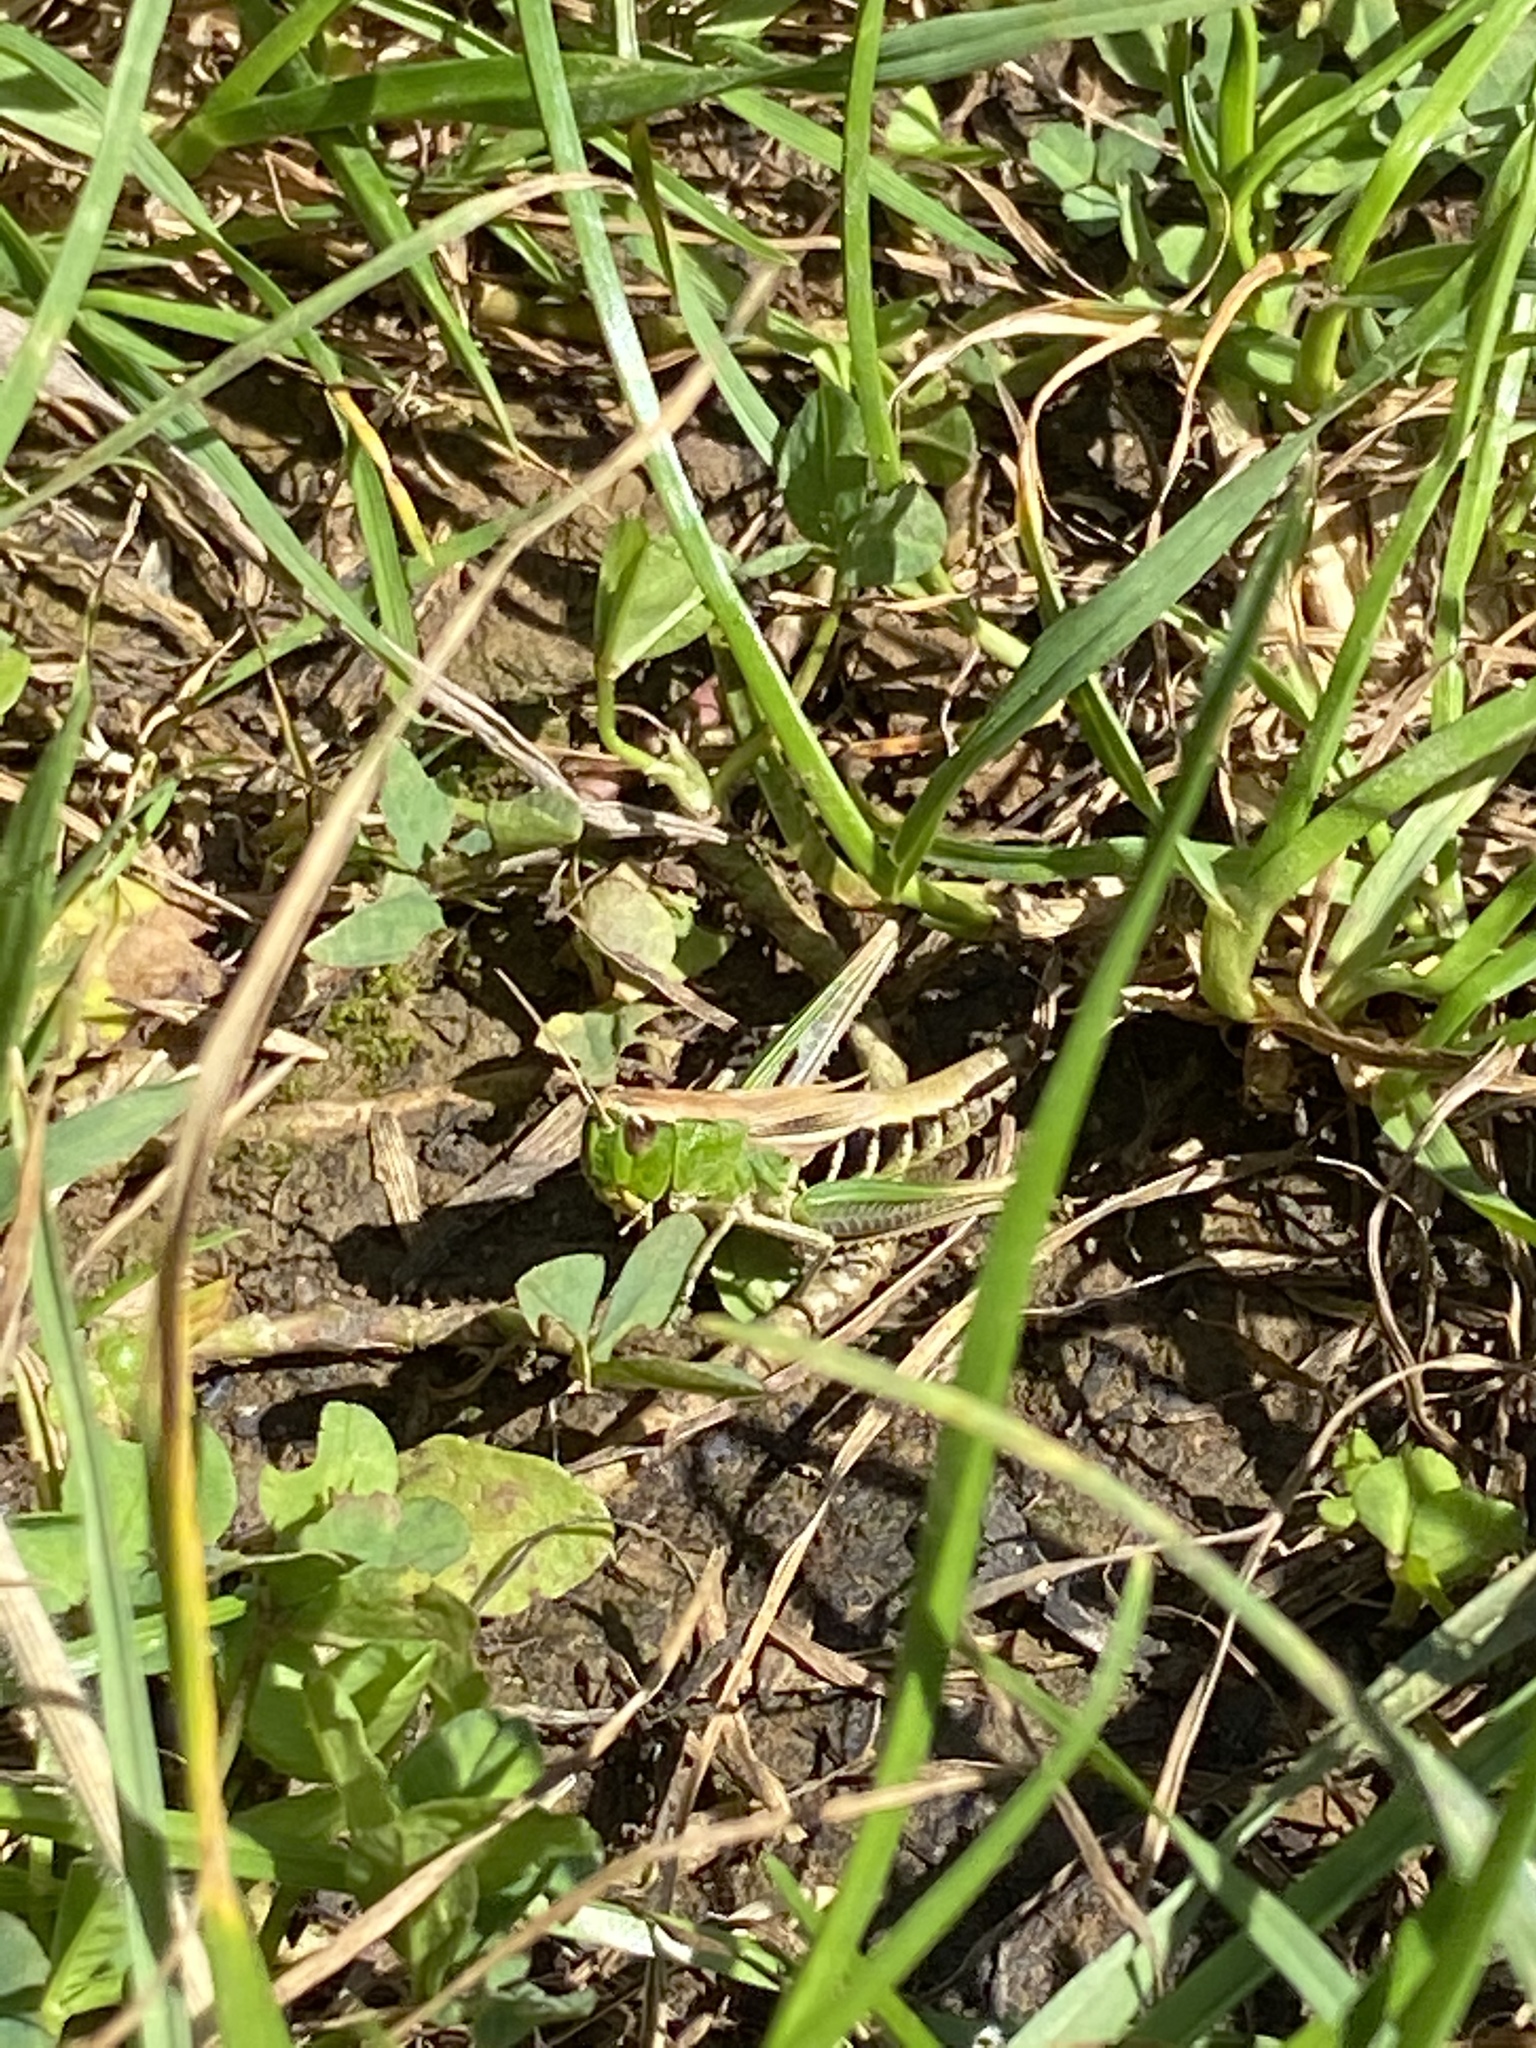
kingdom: Animalia
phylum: Arthropoda
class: Insecta
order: Orthoptera
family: Acrididae
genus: Pseudochorthippus
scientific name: Pseudochorthippus parallelus
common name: Meadow grasshopper
